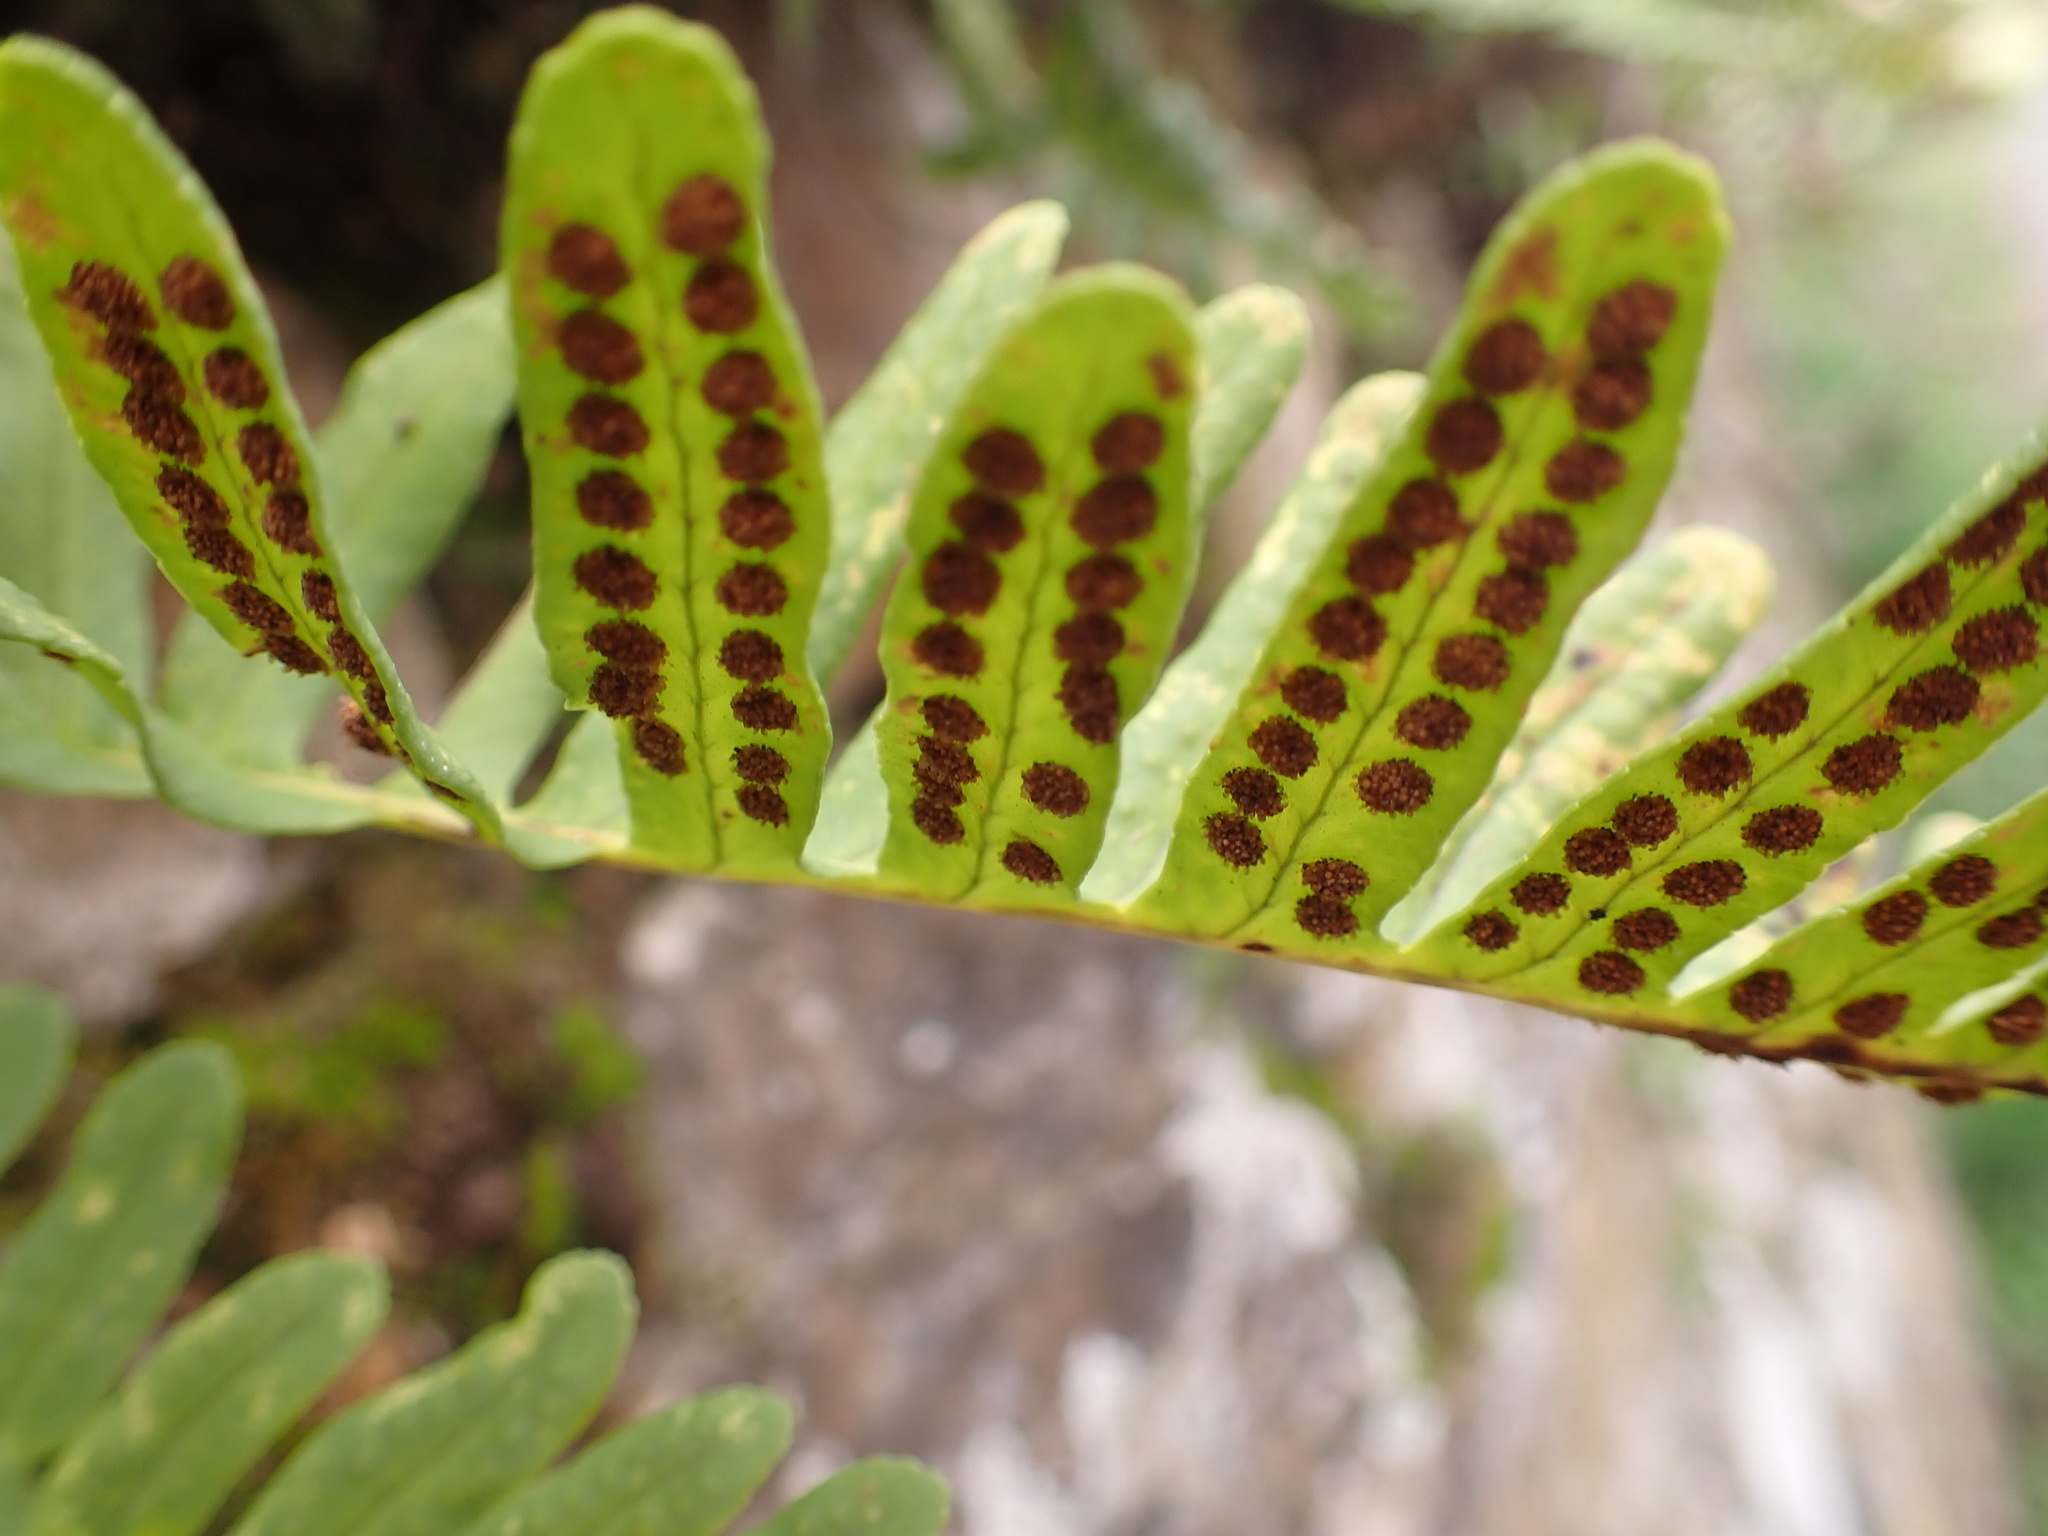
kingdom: Plantae
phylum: Tracheophyta
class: Polypodiopsida
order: Polypodiales
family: Polypodiaceae
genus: Polypodium
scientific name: Polypodium vulgare
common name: Common polypody
